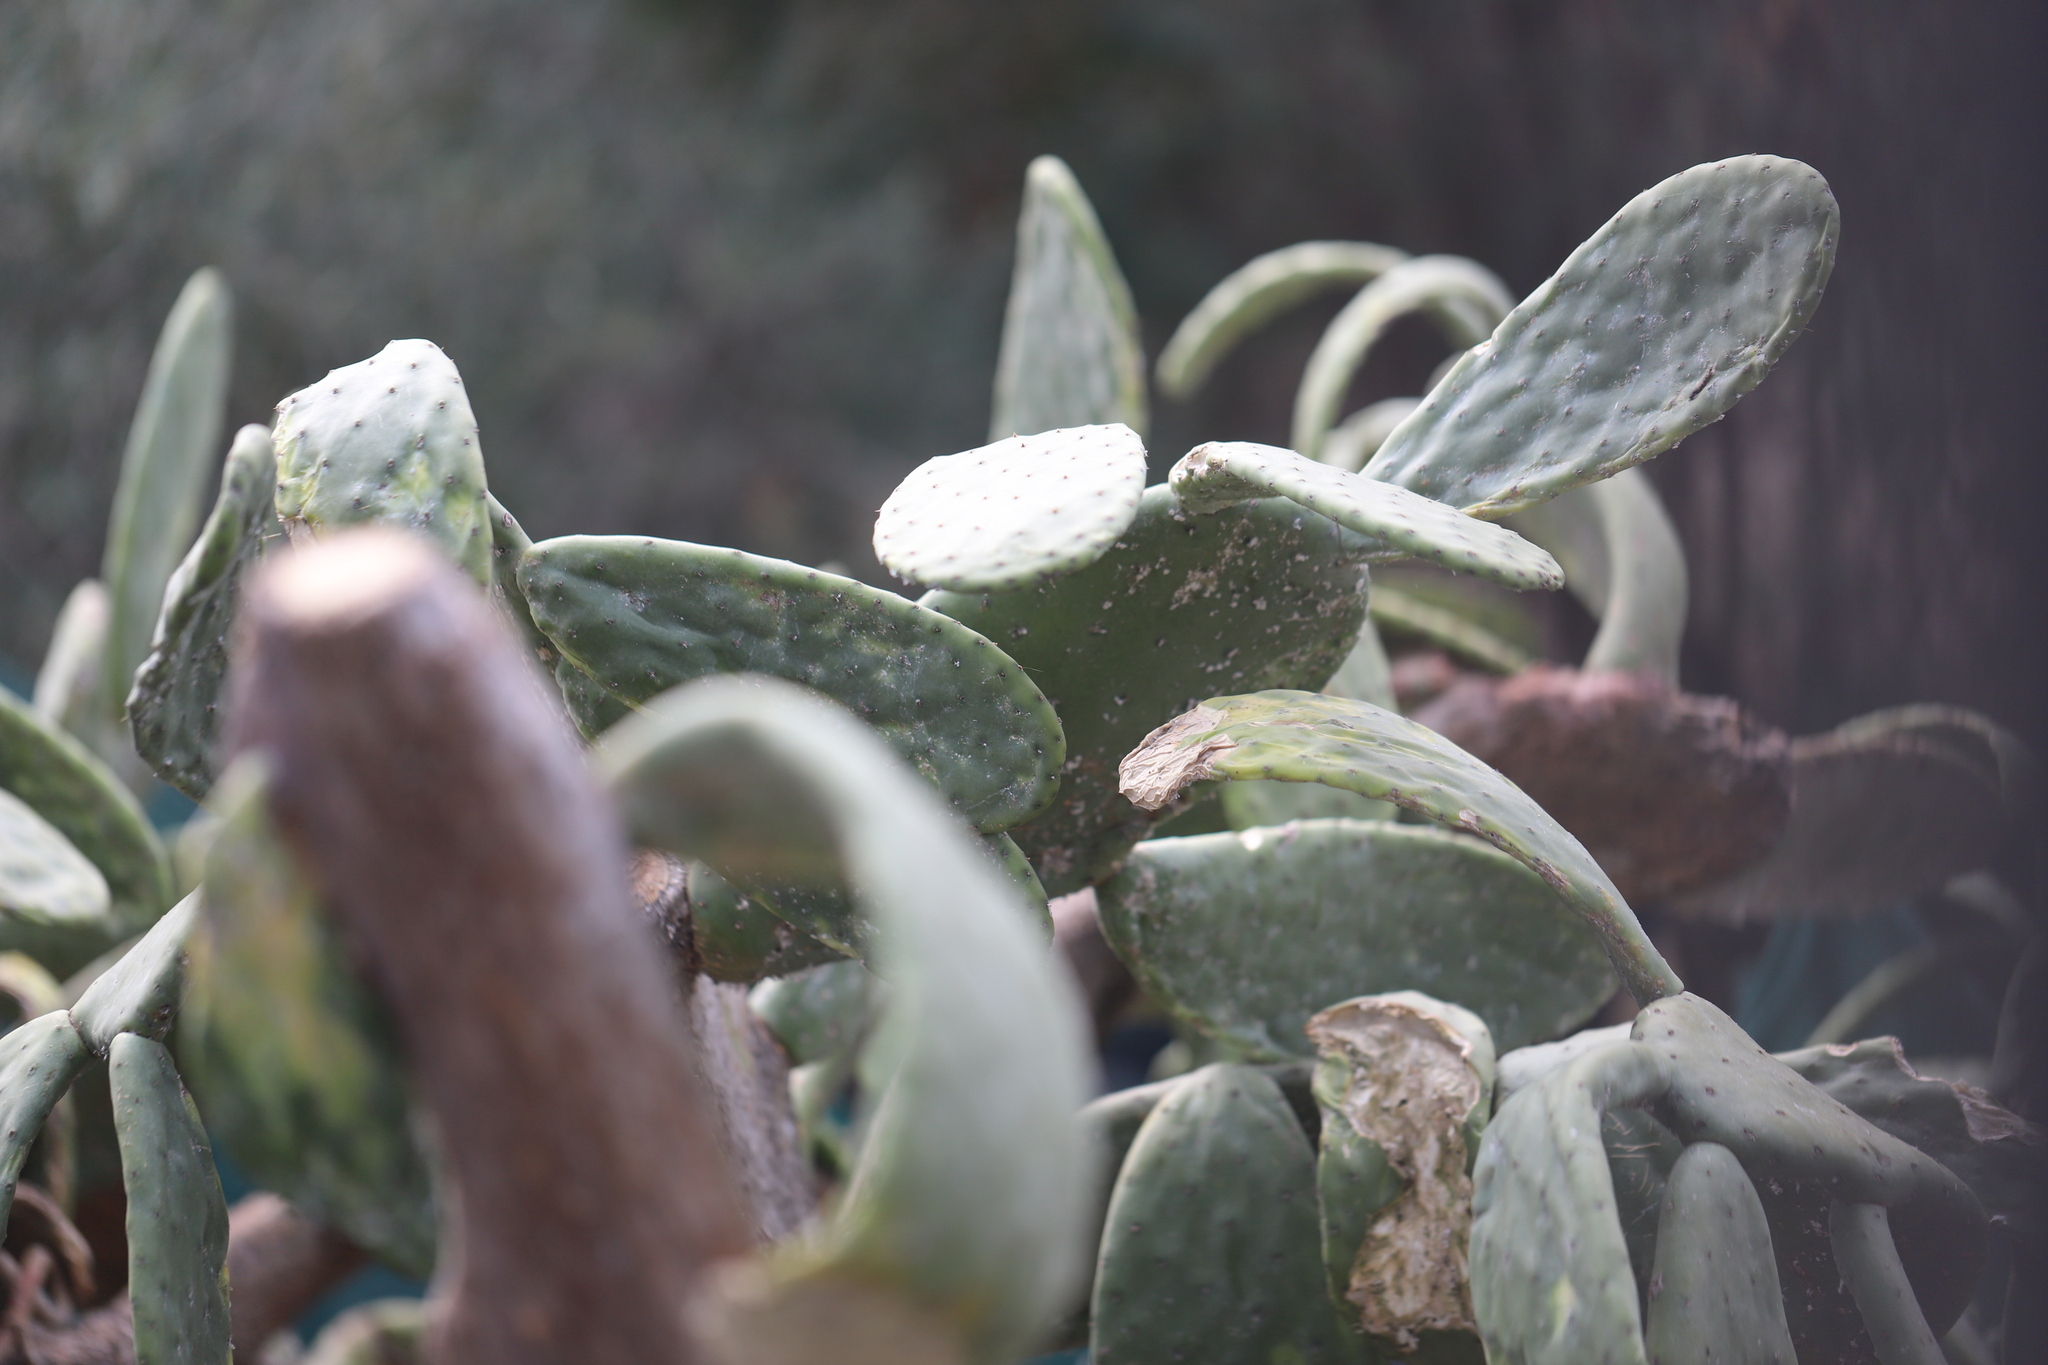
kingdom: Plantae
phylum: Tracheophyta
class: Magnoliopsida
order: Caryophyllales
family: Cactaceae
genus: Opuntia
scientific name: Opuntia ficus-indica
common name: Barbary fig
